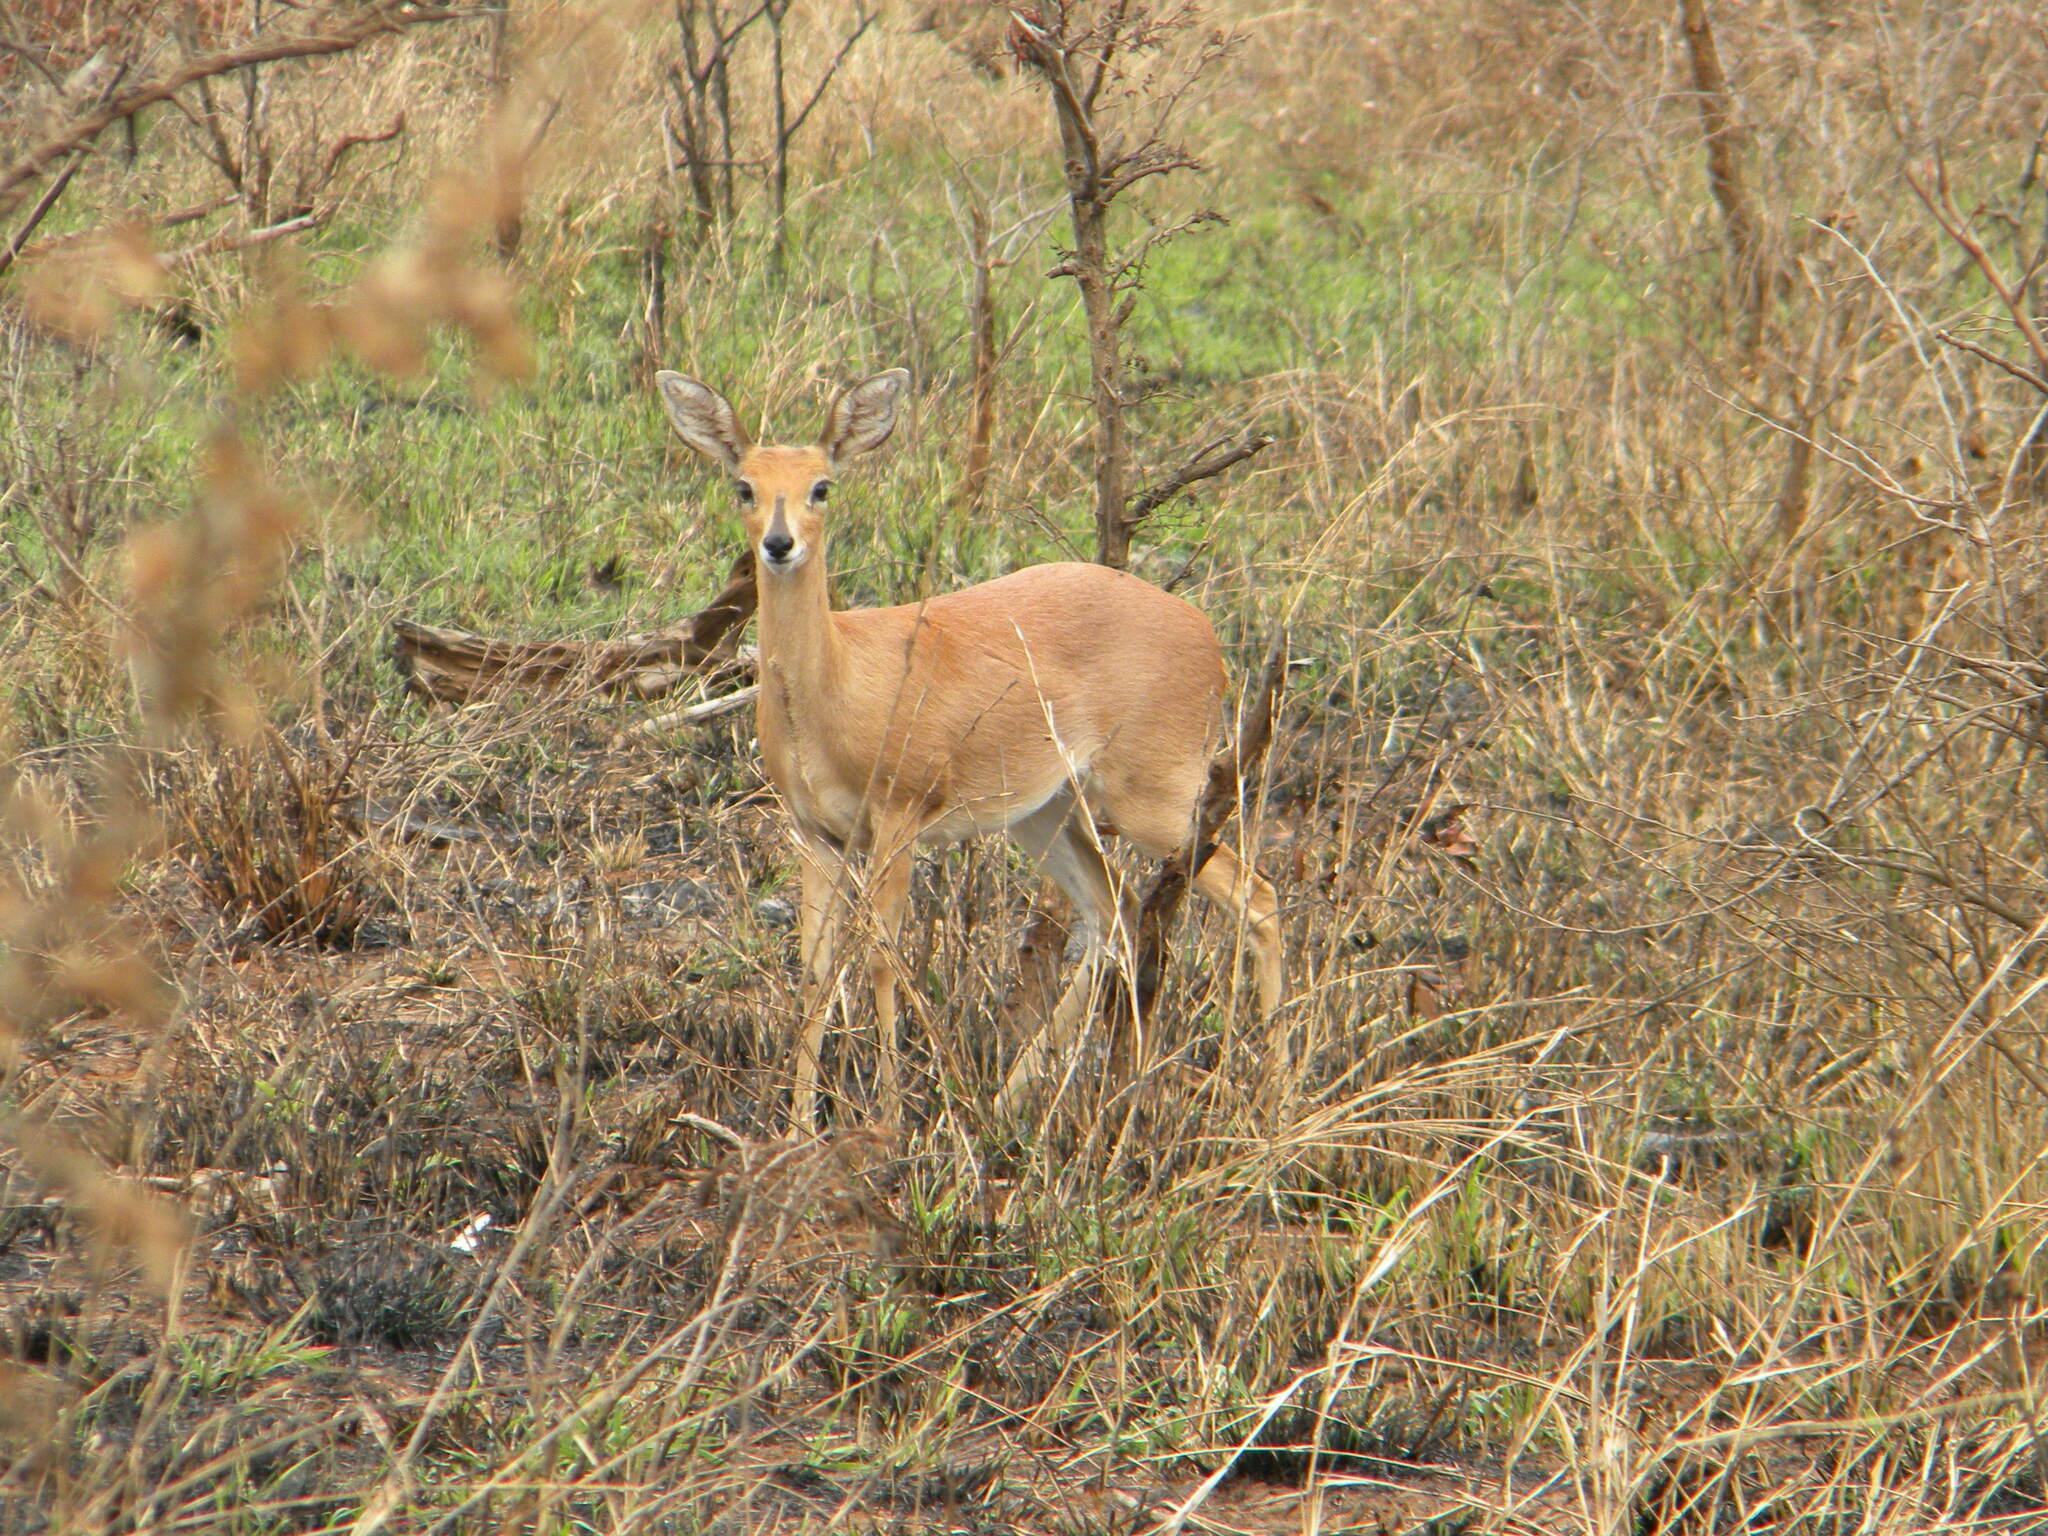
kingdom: Animalia
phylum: Chordata
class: Mammalia
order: Artiodactyla
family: Bovidae
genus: Raphicerus
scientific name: Raphicerus campestris
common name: Steenbok
